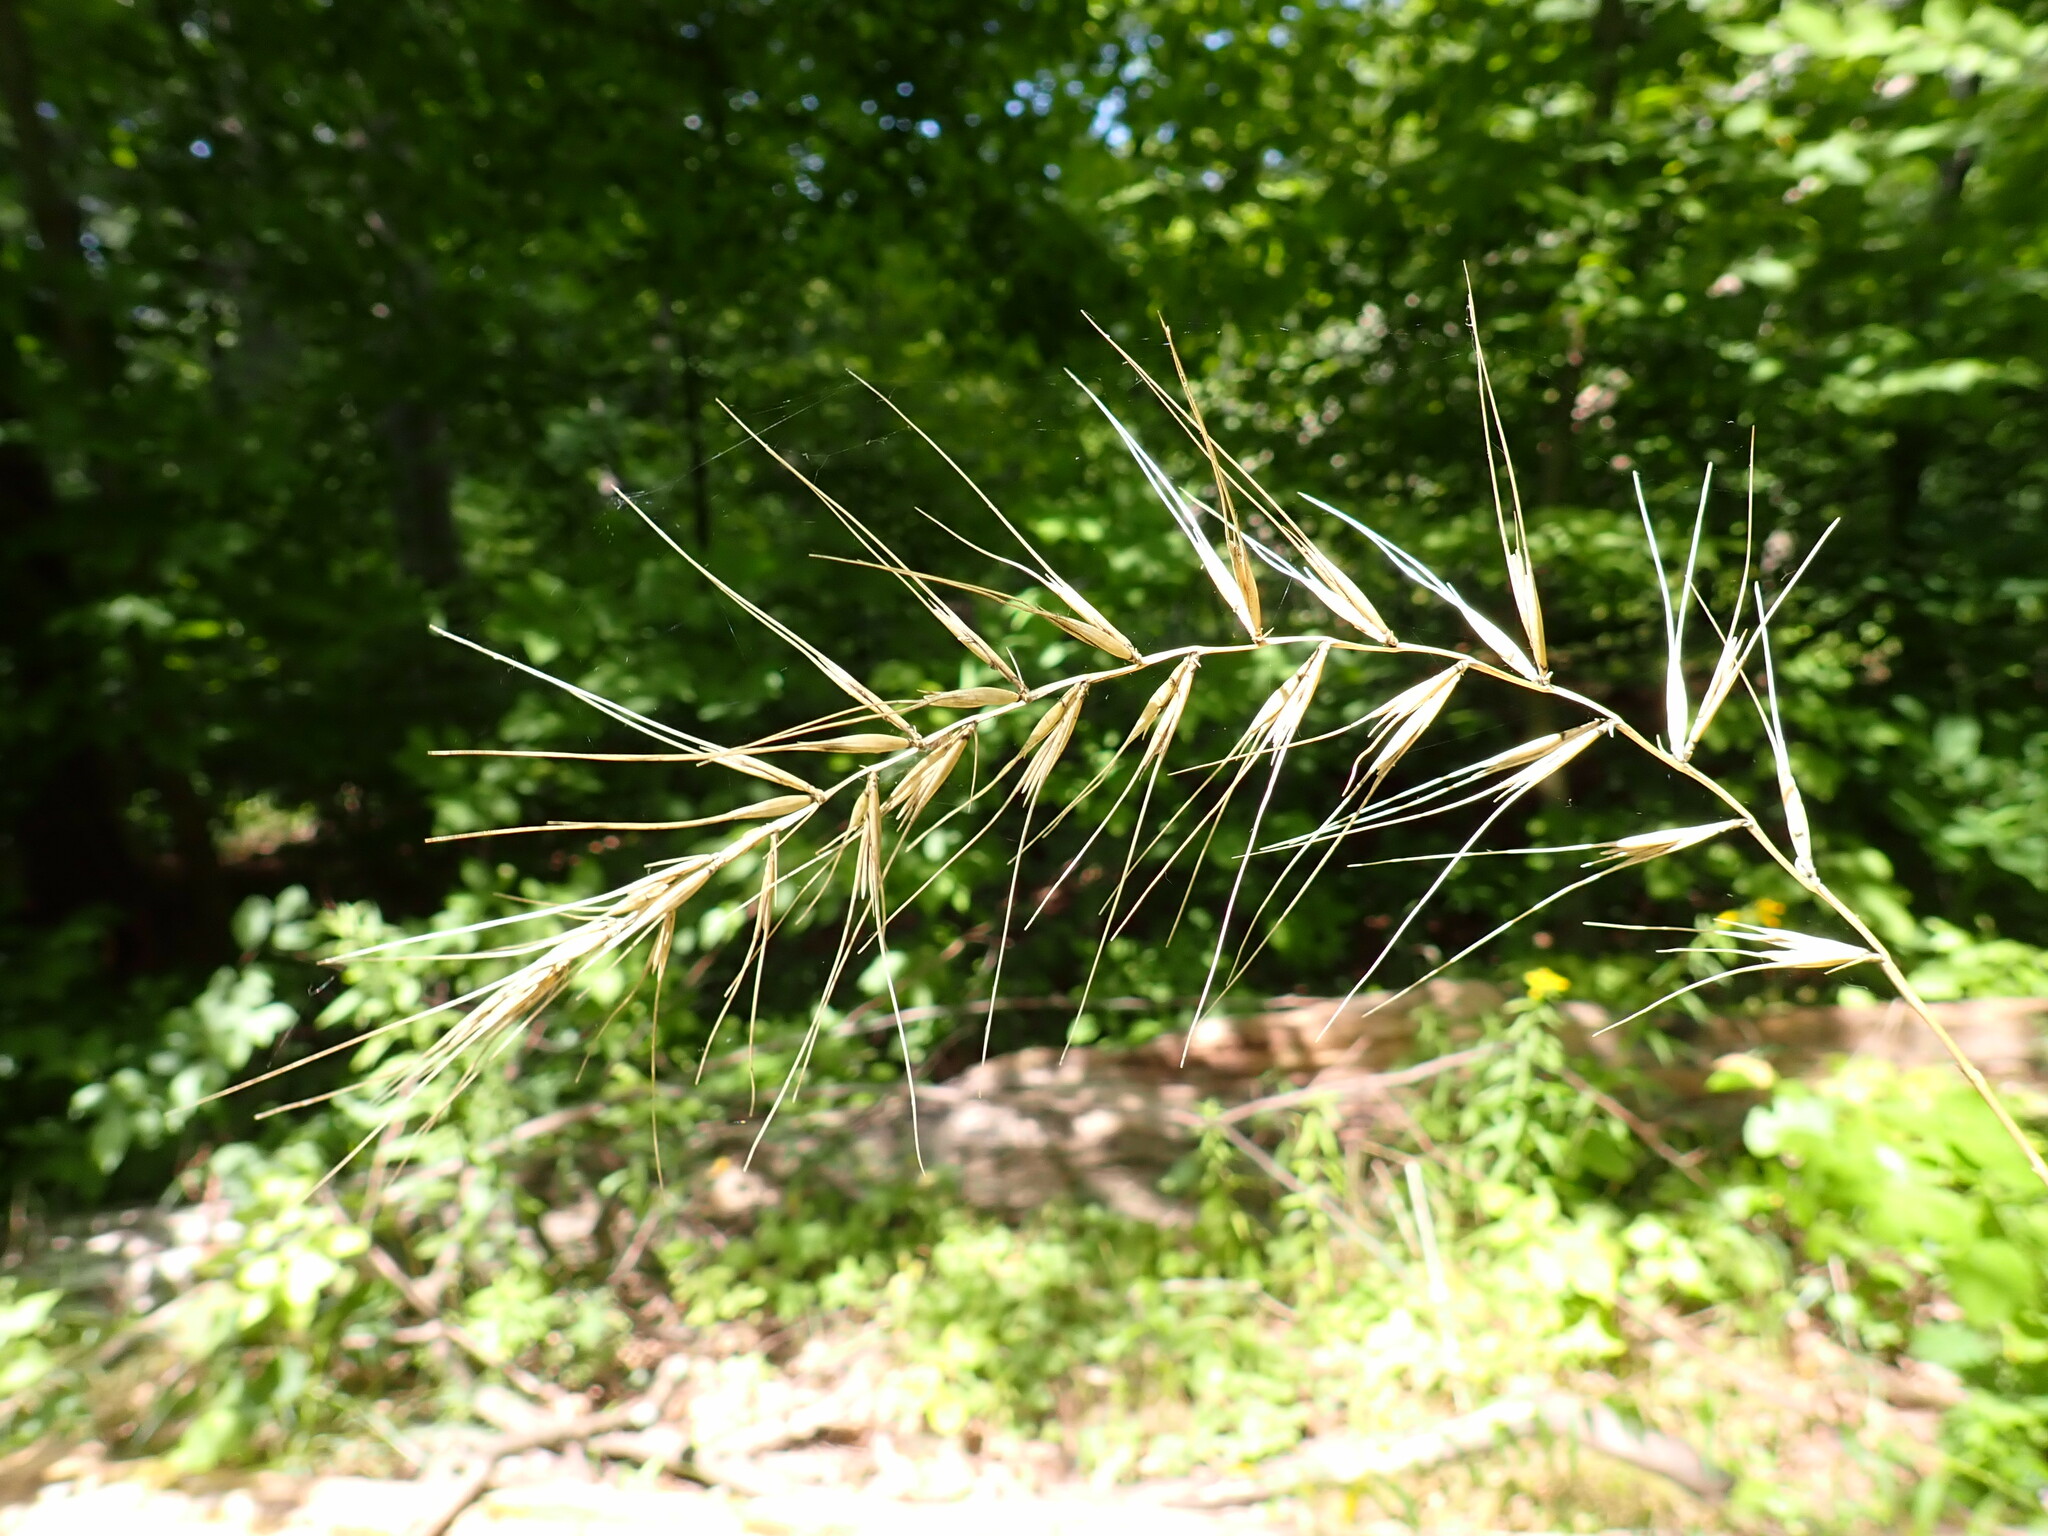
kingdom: Plantae
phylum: Tracheophyta
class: Liliopsida
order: Poales
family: Poaceae
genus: Elymus
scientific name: Elymus hystrix
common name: Bottlebrush grass
